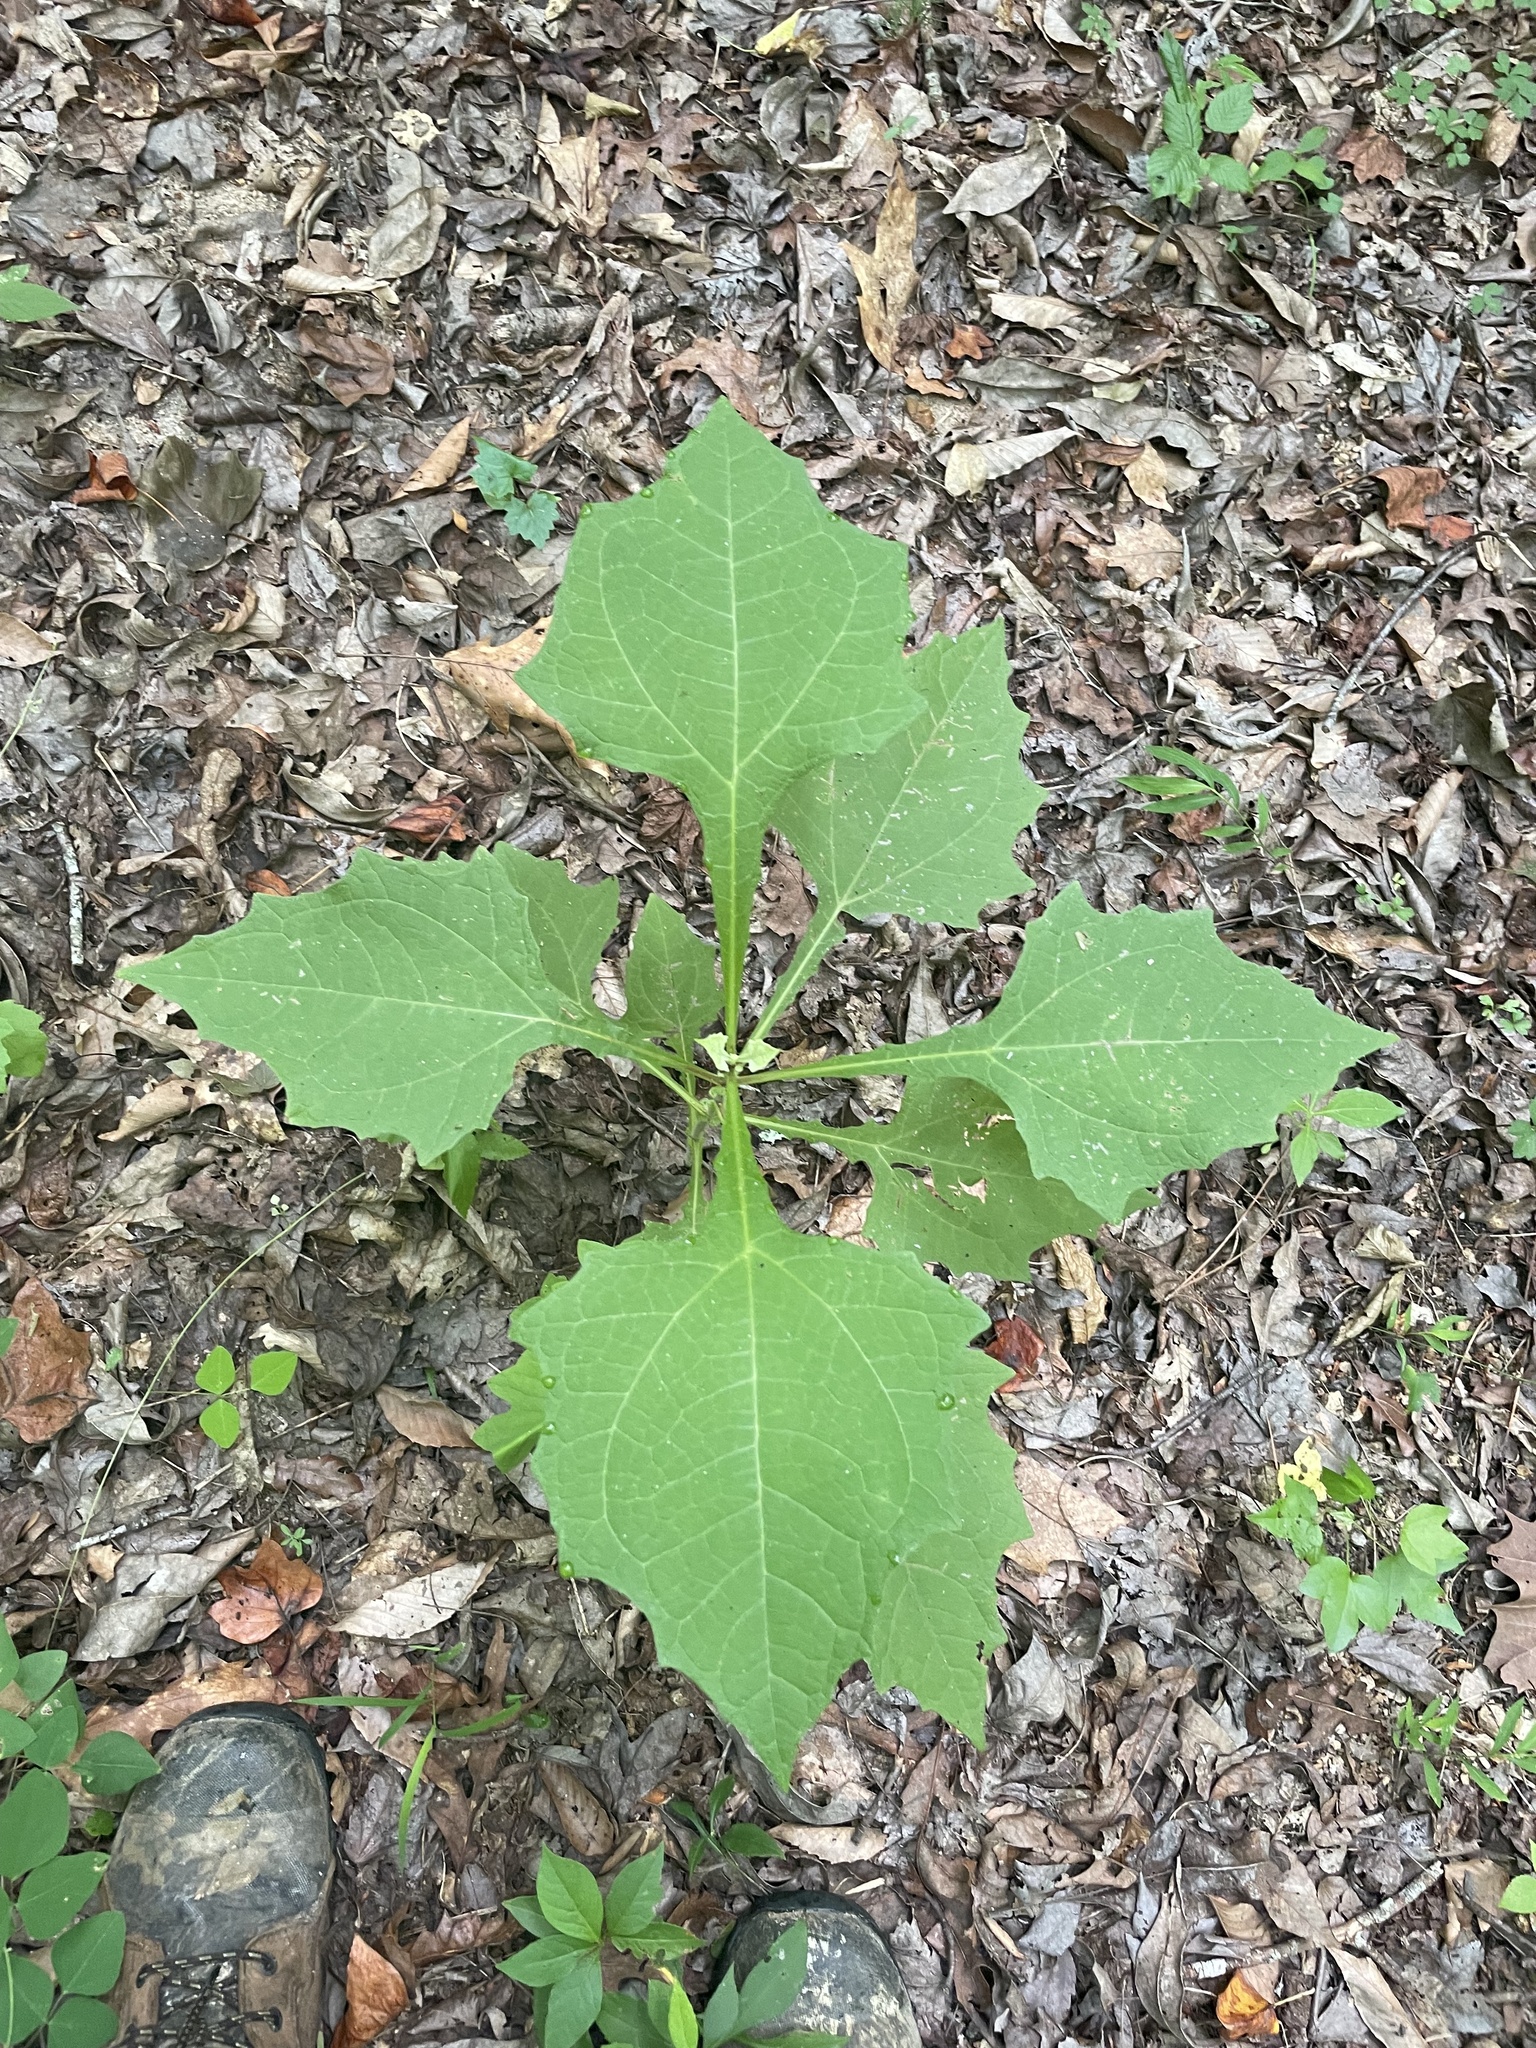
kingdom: Plantae
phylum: Tracheophyta
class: Magnoliopsida
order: Asterales
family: Asteraceae
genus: Smallanthus
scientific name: Smallanthus uvedalia
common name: Bear's-foot
